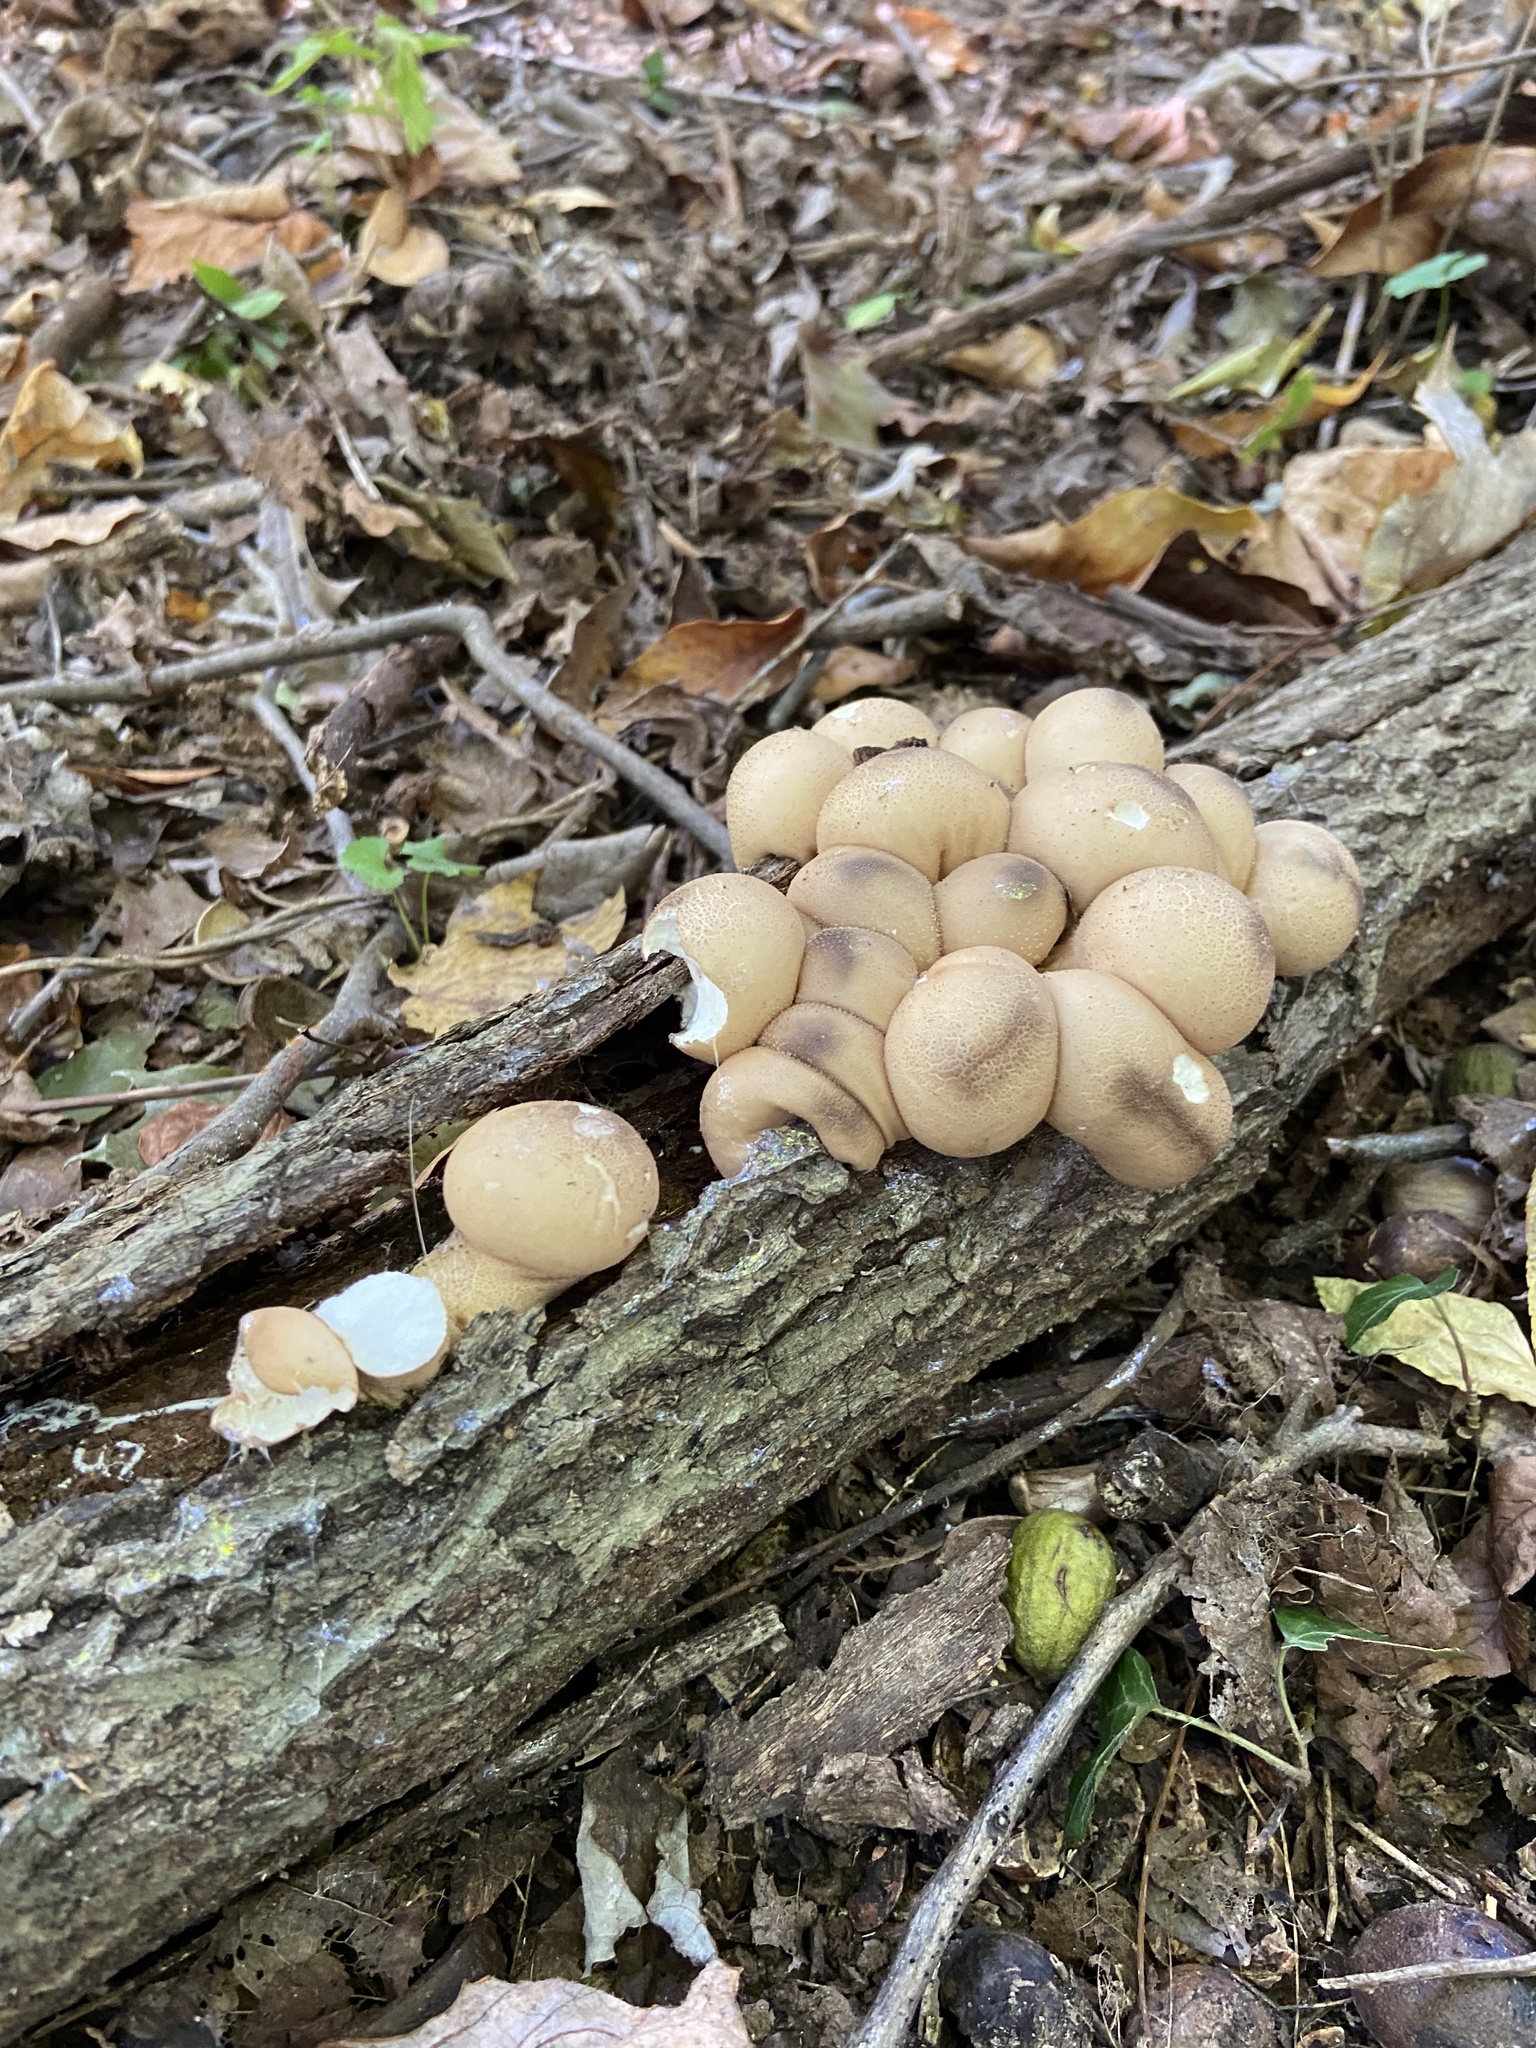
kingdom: Fungi
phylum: Basidiomycota
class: Agaricomycetes
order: Agaricales
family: Lycoperdaceae
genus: Apioperdon
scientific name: Apioperdon pyriforme
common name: Pear-shaped puffball
